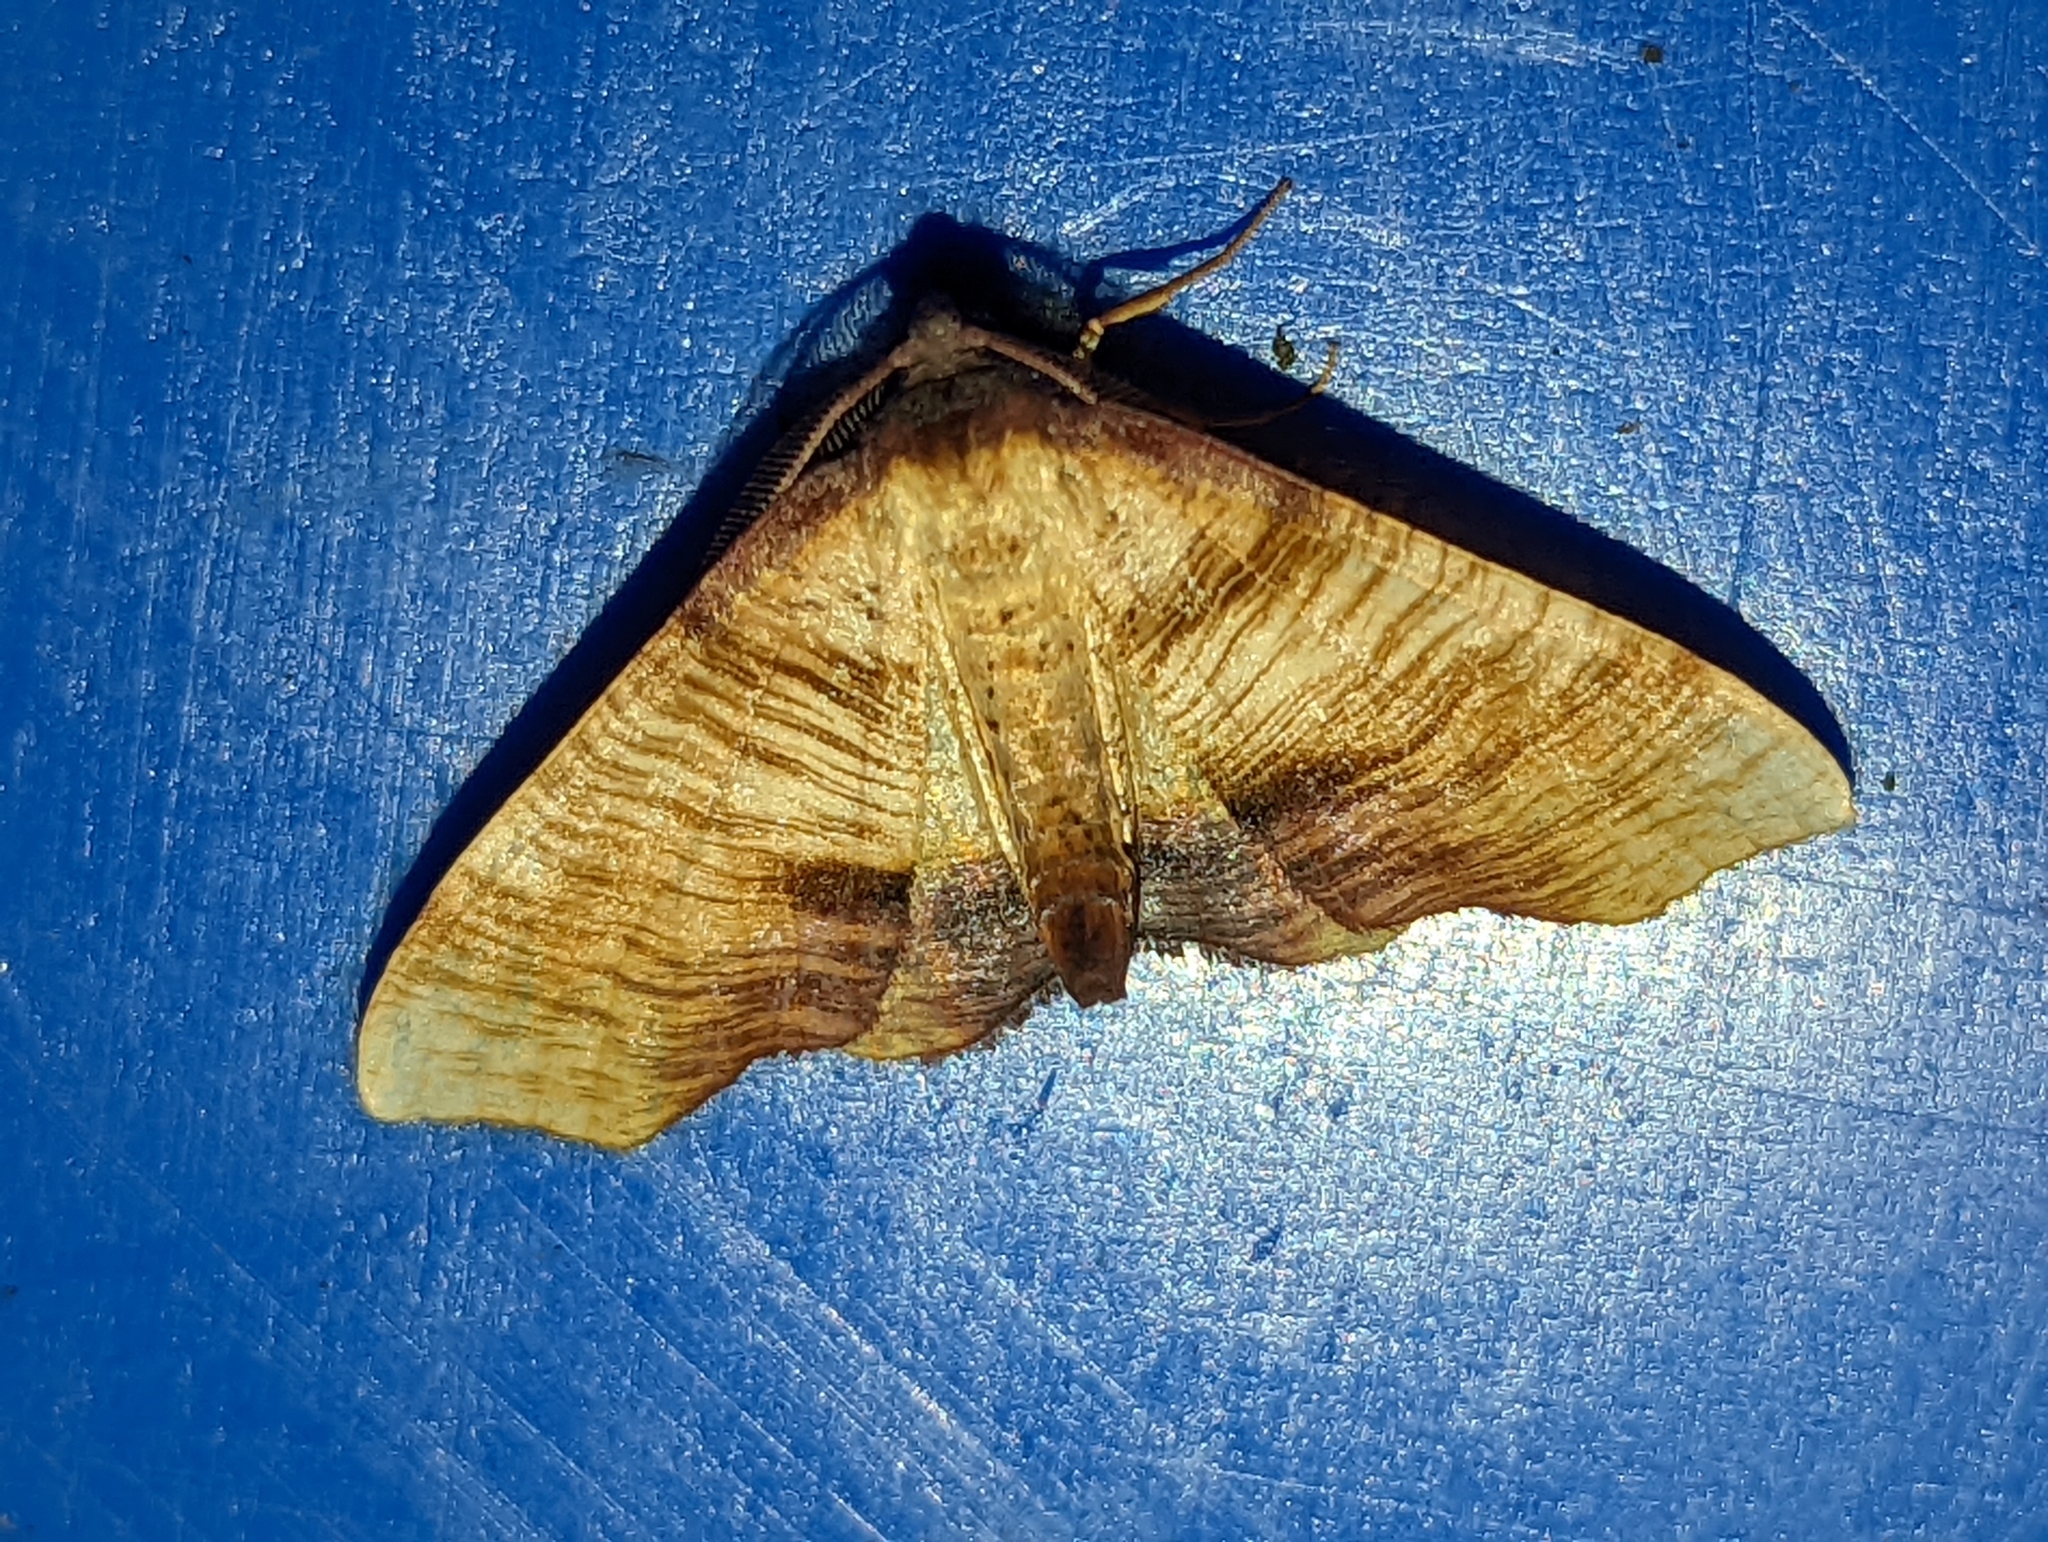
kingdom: Animalia
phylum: Arthropoda
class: Insecta
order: Lepidoptera
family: Geometridae
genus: Plagodis
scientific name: Plagodis dolabraria
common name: Scorched wing
